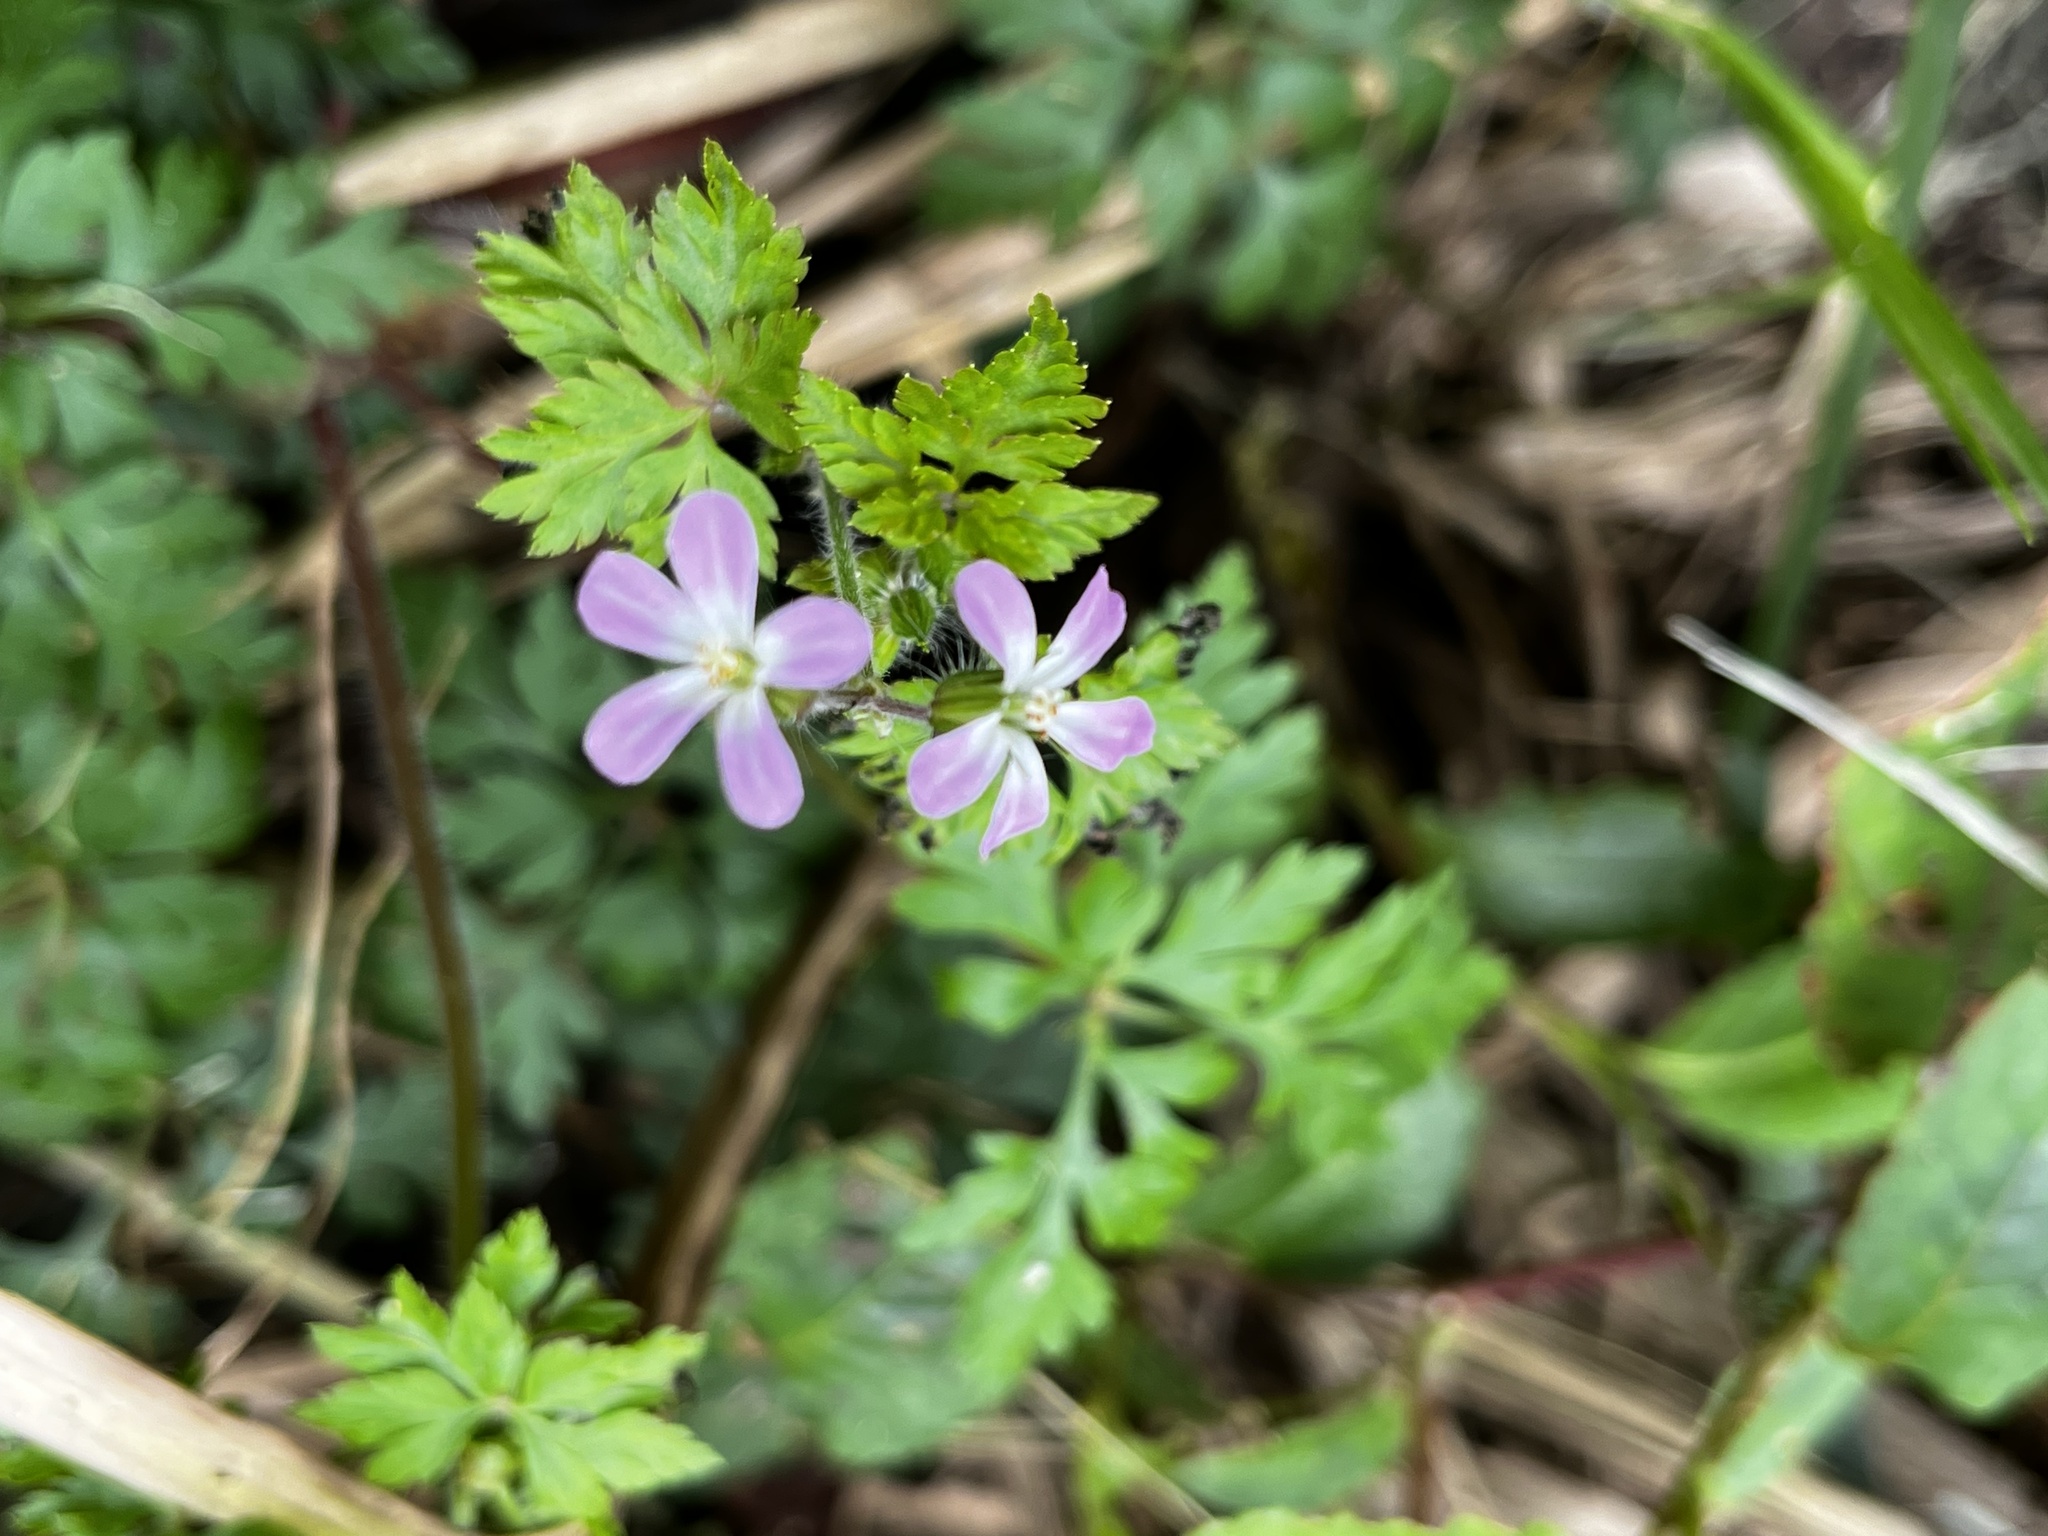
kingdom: Plantae
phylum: Tracheophyta
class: Magnoliopsida
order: Geraniales
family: Geraniaceae
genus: Geranium
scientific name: Geranium robertianum
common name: Herb-robert
